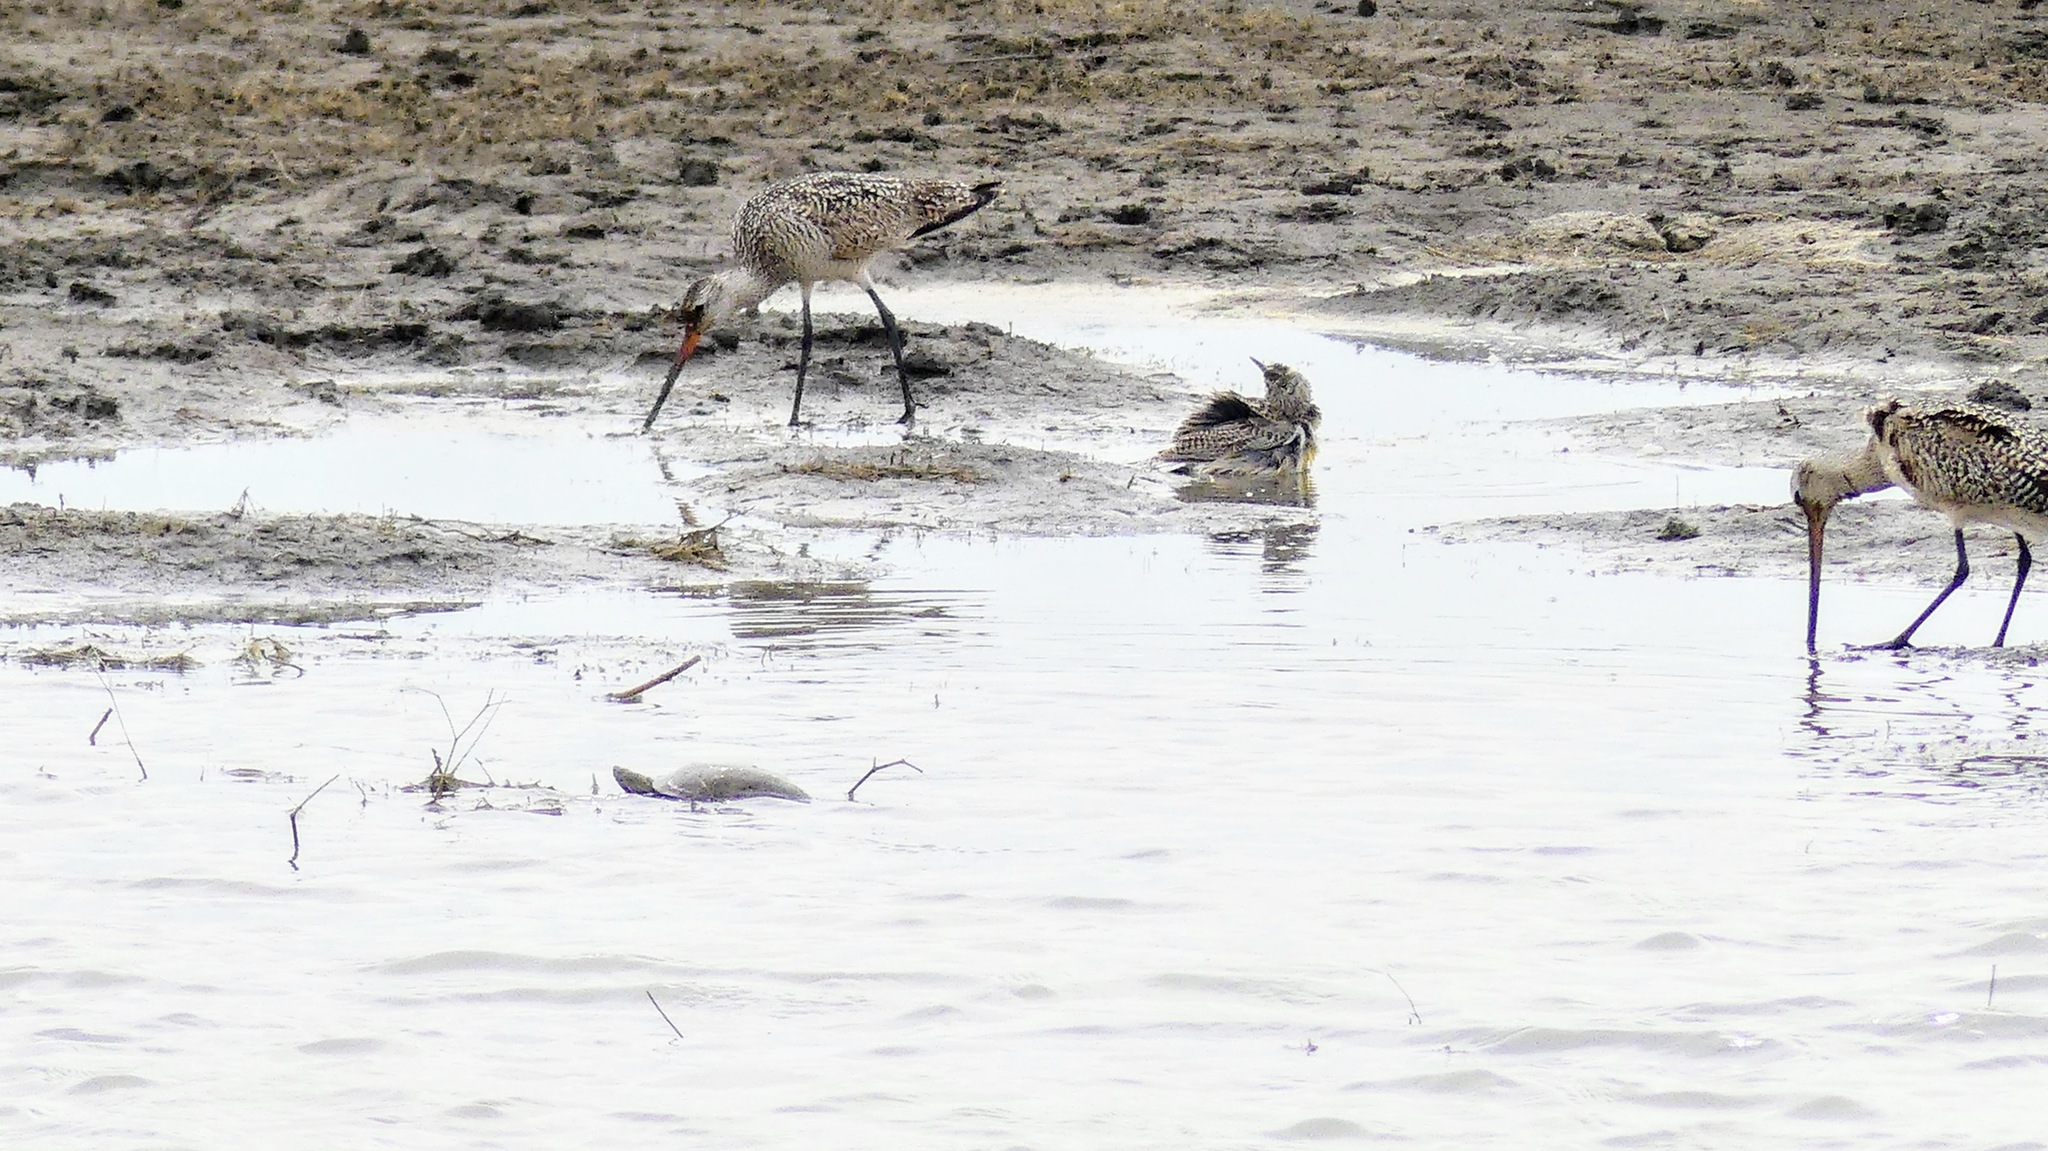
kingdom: Animalia
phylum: Chordata
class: Testudines
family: Emydidae
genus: Chrysemys
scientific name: Chrysemys picta
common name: Painted turtle
